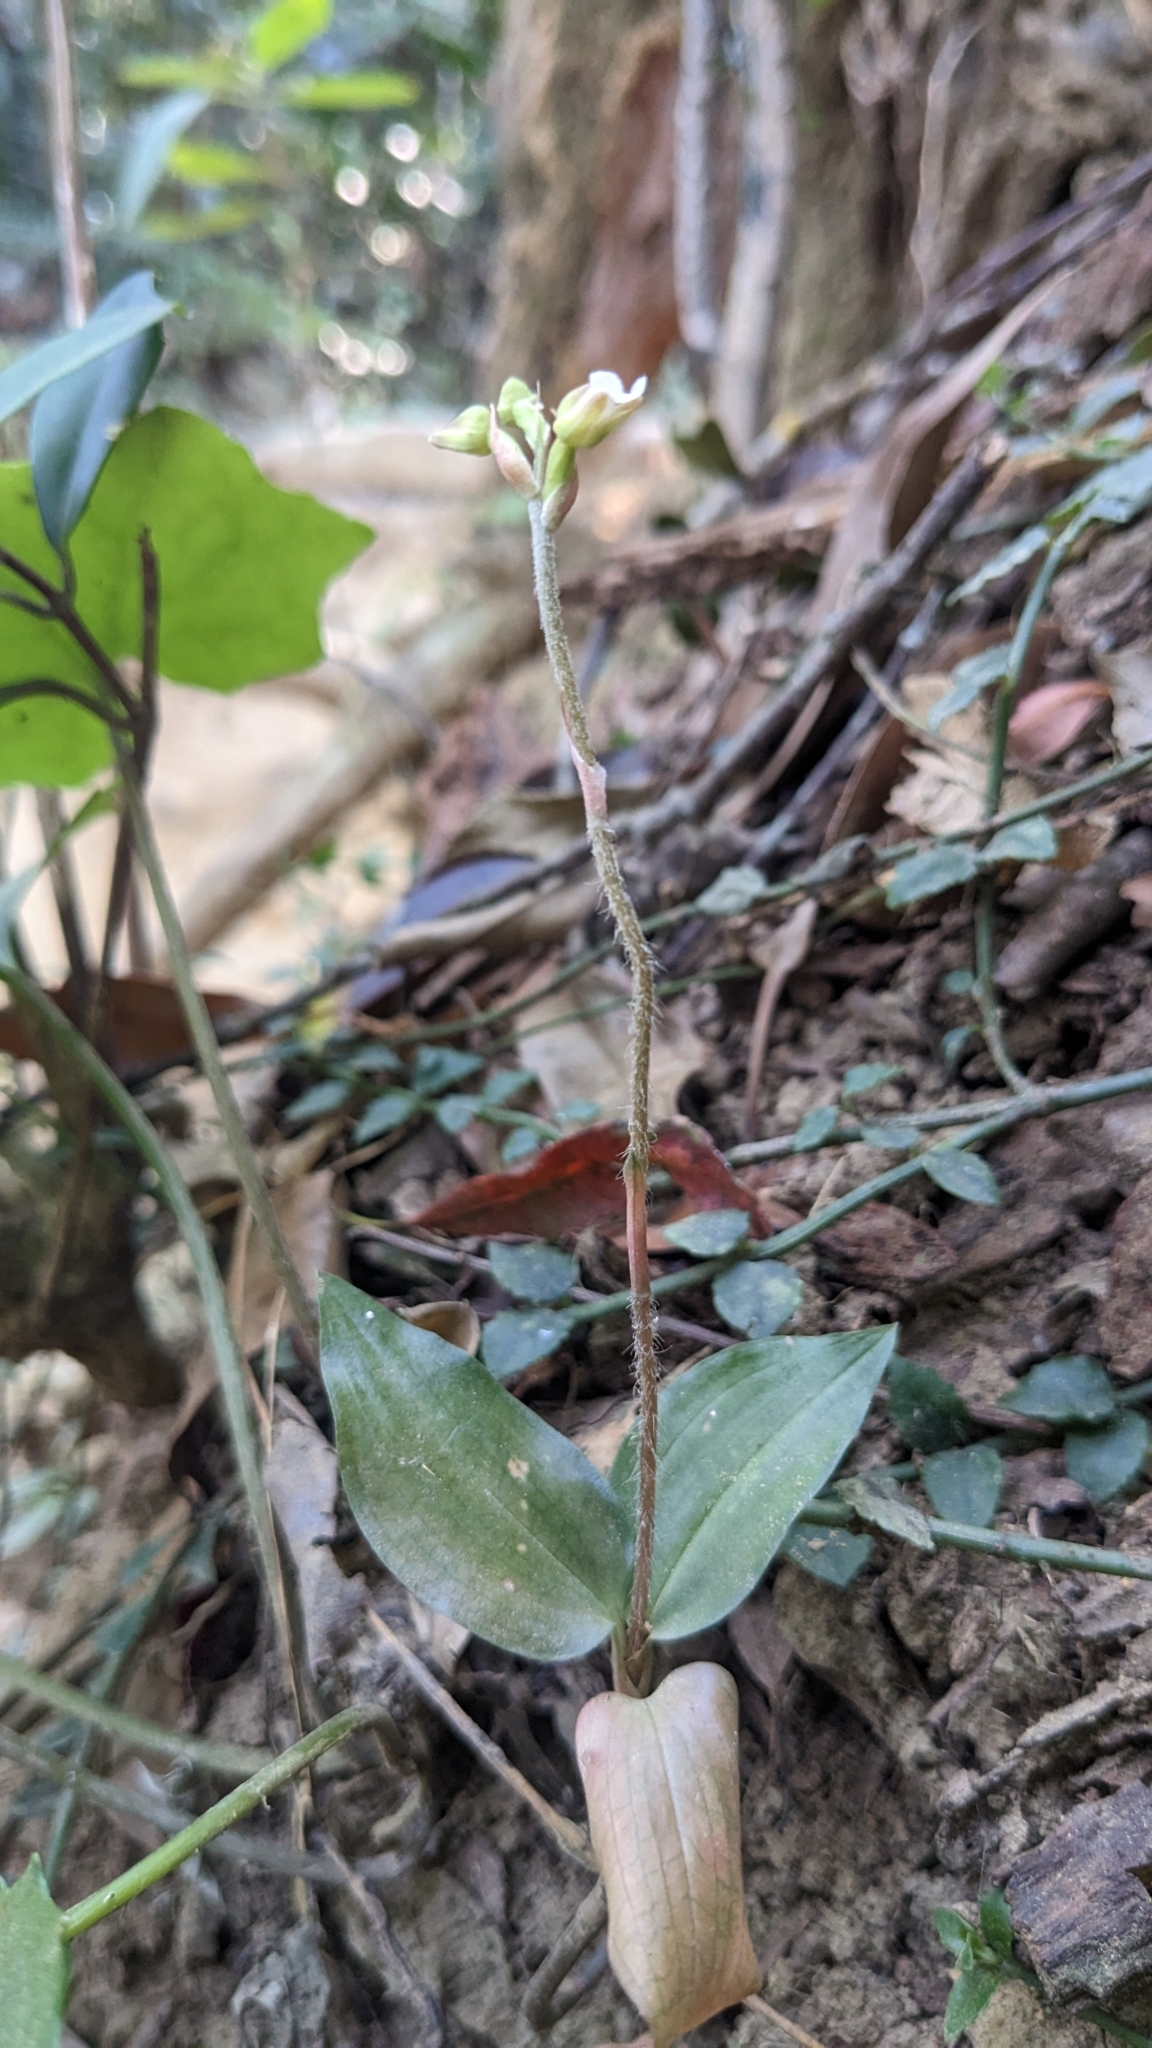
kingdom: Plantae
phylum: Tracheophyta
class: Liliopsida
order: Asparagales
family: Orchidaceae
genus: Zeuxine
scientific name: Zeuxine nervosa
